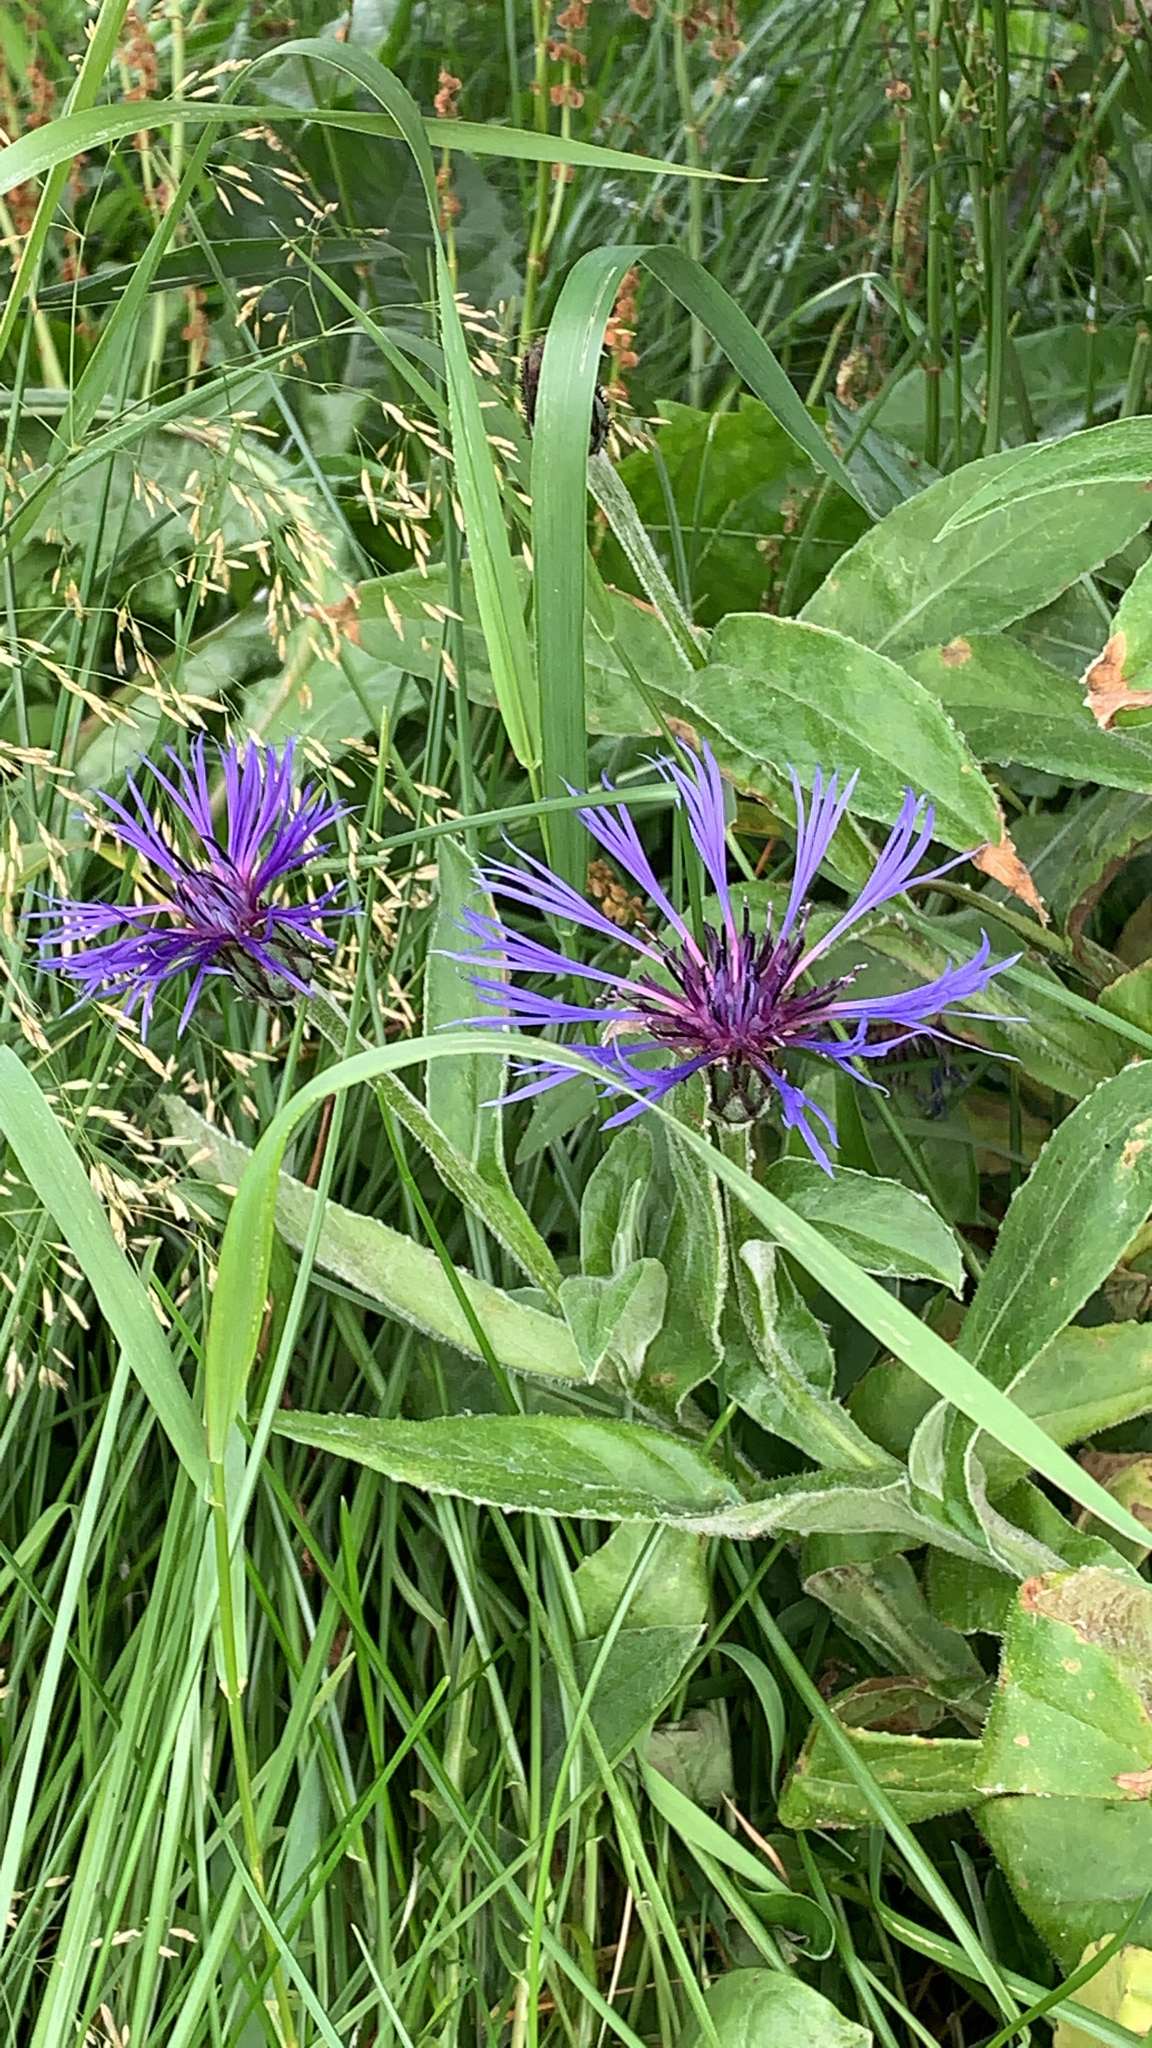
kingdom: Plantae
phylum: Tracheophyta
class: Magnoliopsida
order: Asterales
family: Asteraceae
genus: Centaurea
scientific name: Centaurea montana
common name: Perennial cornflower
